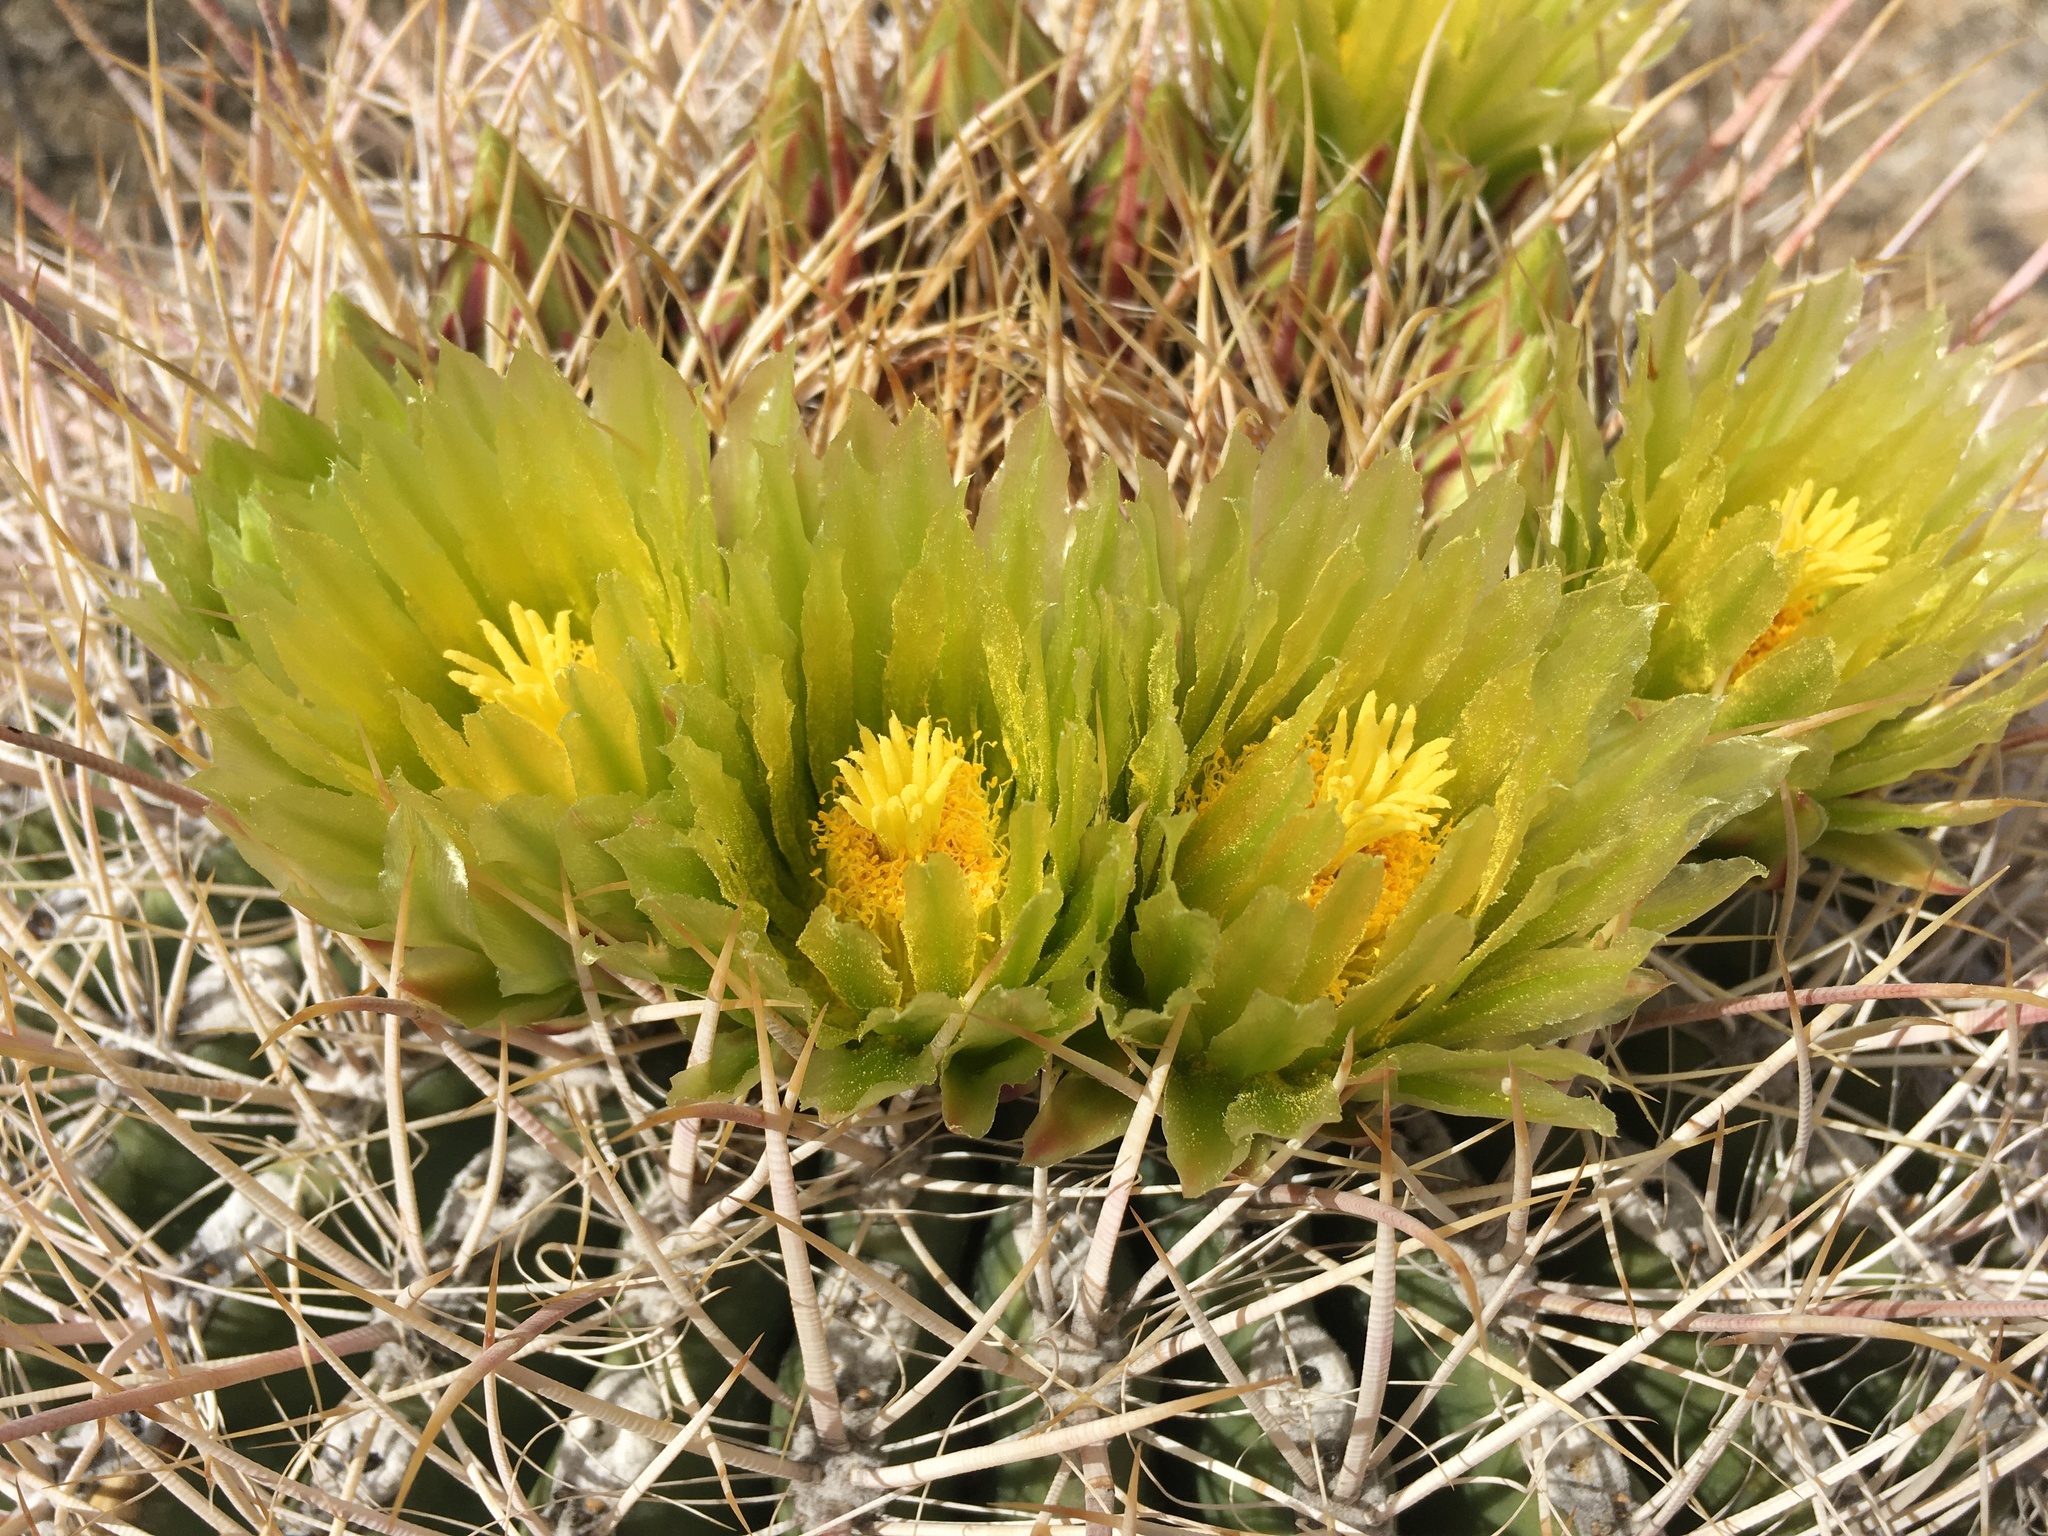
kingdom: Plantae
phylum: Tracheophyta
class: Magnoliopsida
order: Caryophyllales
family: Cactaceae
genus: Ferocactus
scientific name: Ferocactus cylindraceus
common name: California barrel cactus
